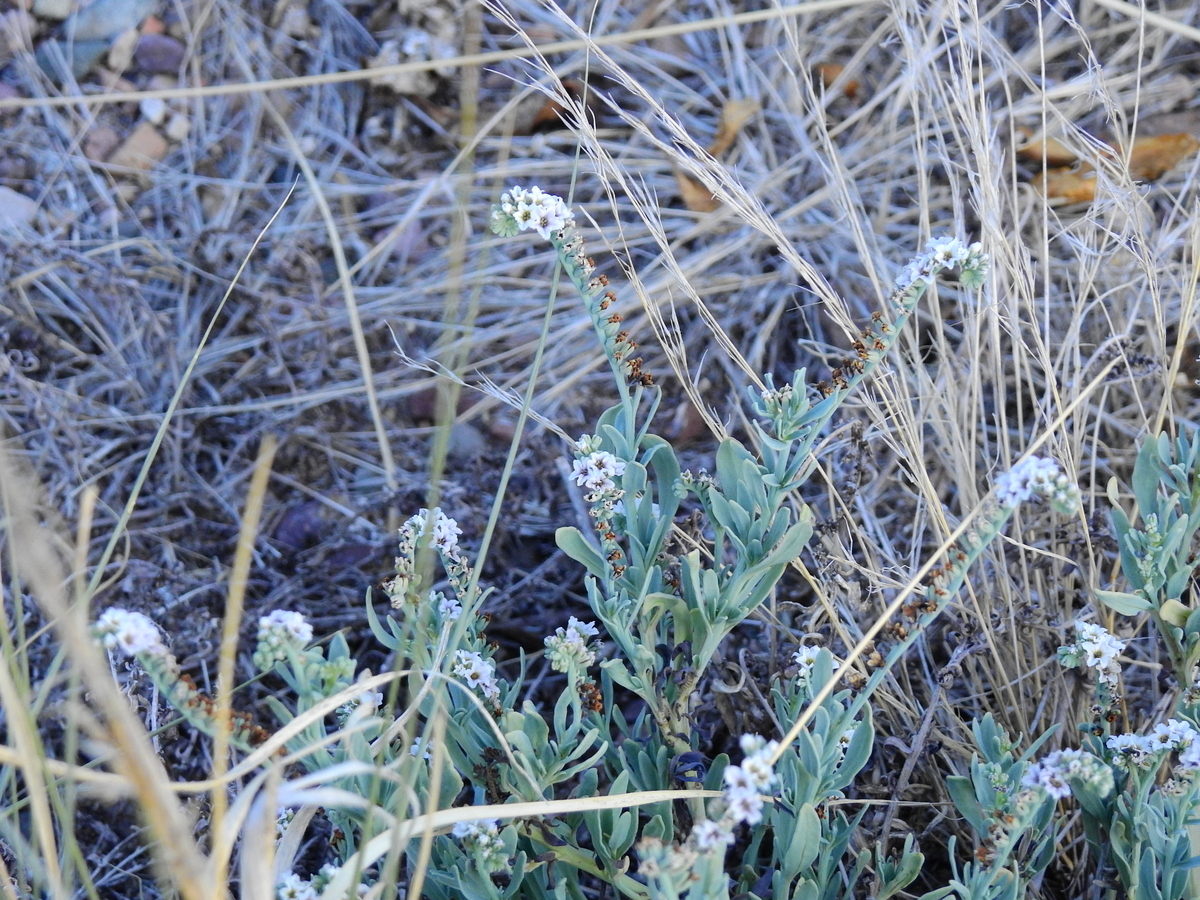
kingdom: Plantae
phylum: Tracheophyta
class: Magnoliopsida
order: Boraginales
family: Heliotropiaceae
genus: Heliotropium
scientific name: Heliotropium curassavicum
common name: Seaside heliotrope
